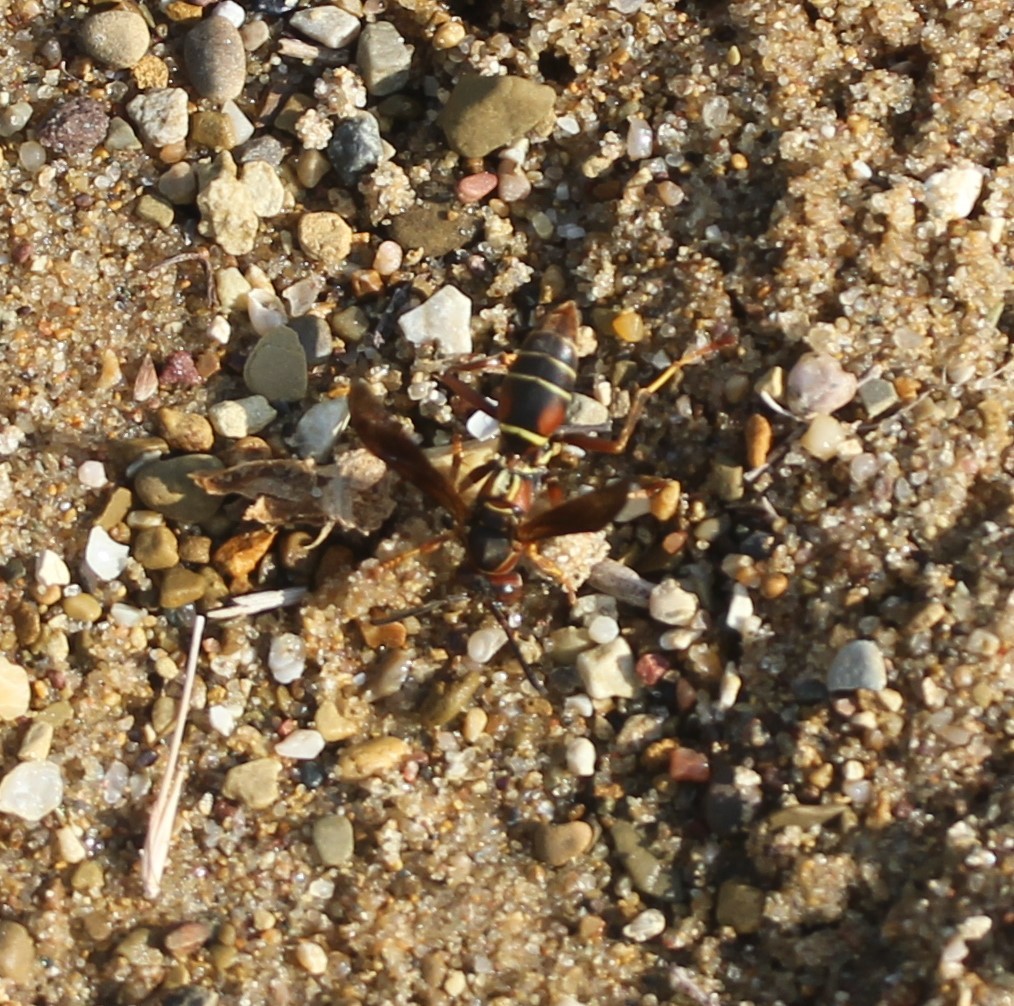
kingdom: Animalia
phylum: Arthropoda
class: Insecta
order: Hymenoptera
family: Eumenidae
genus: Polistes
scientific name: Polistes fuscatus
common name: Dark paper wasp
